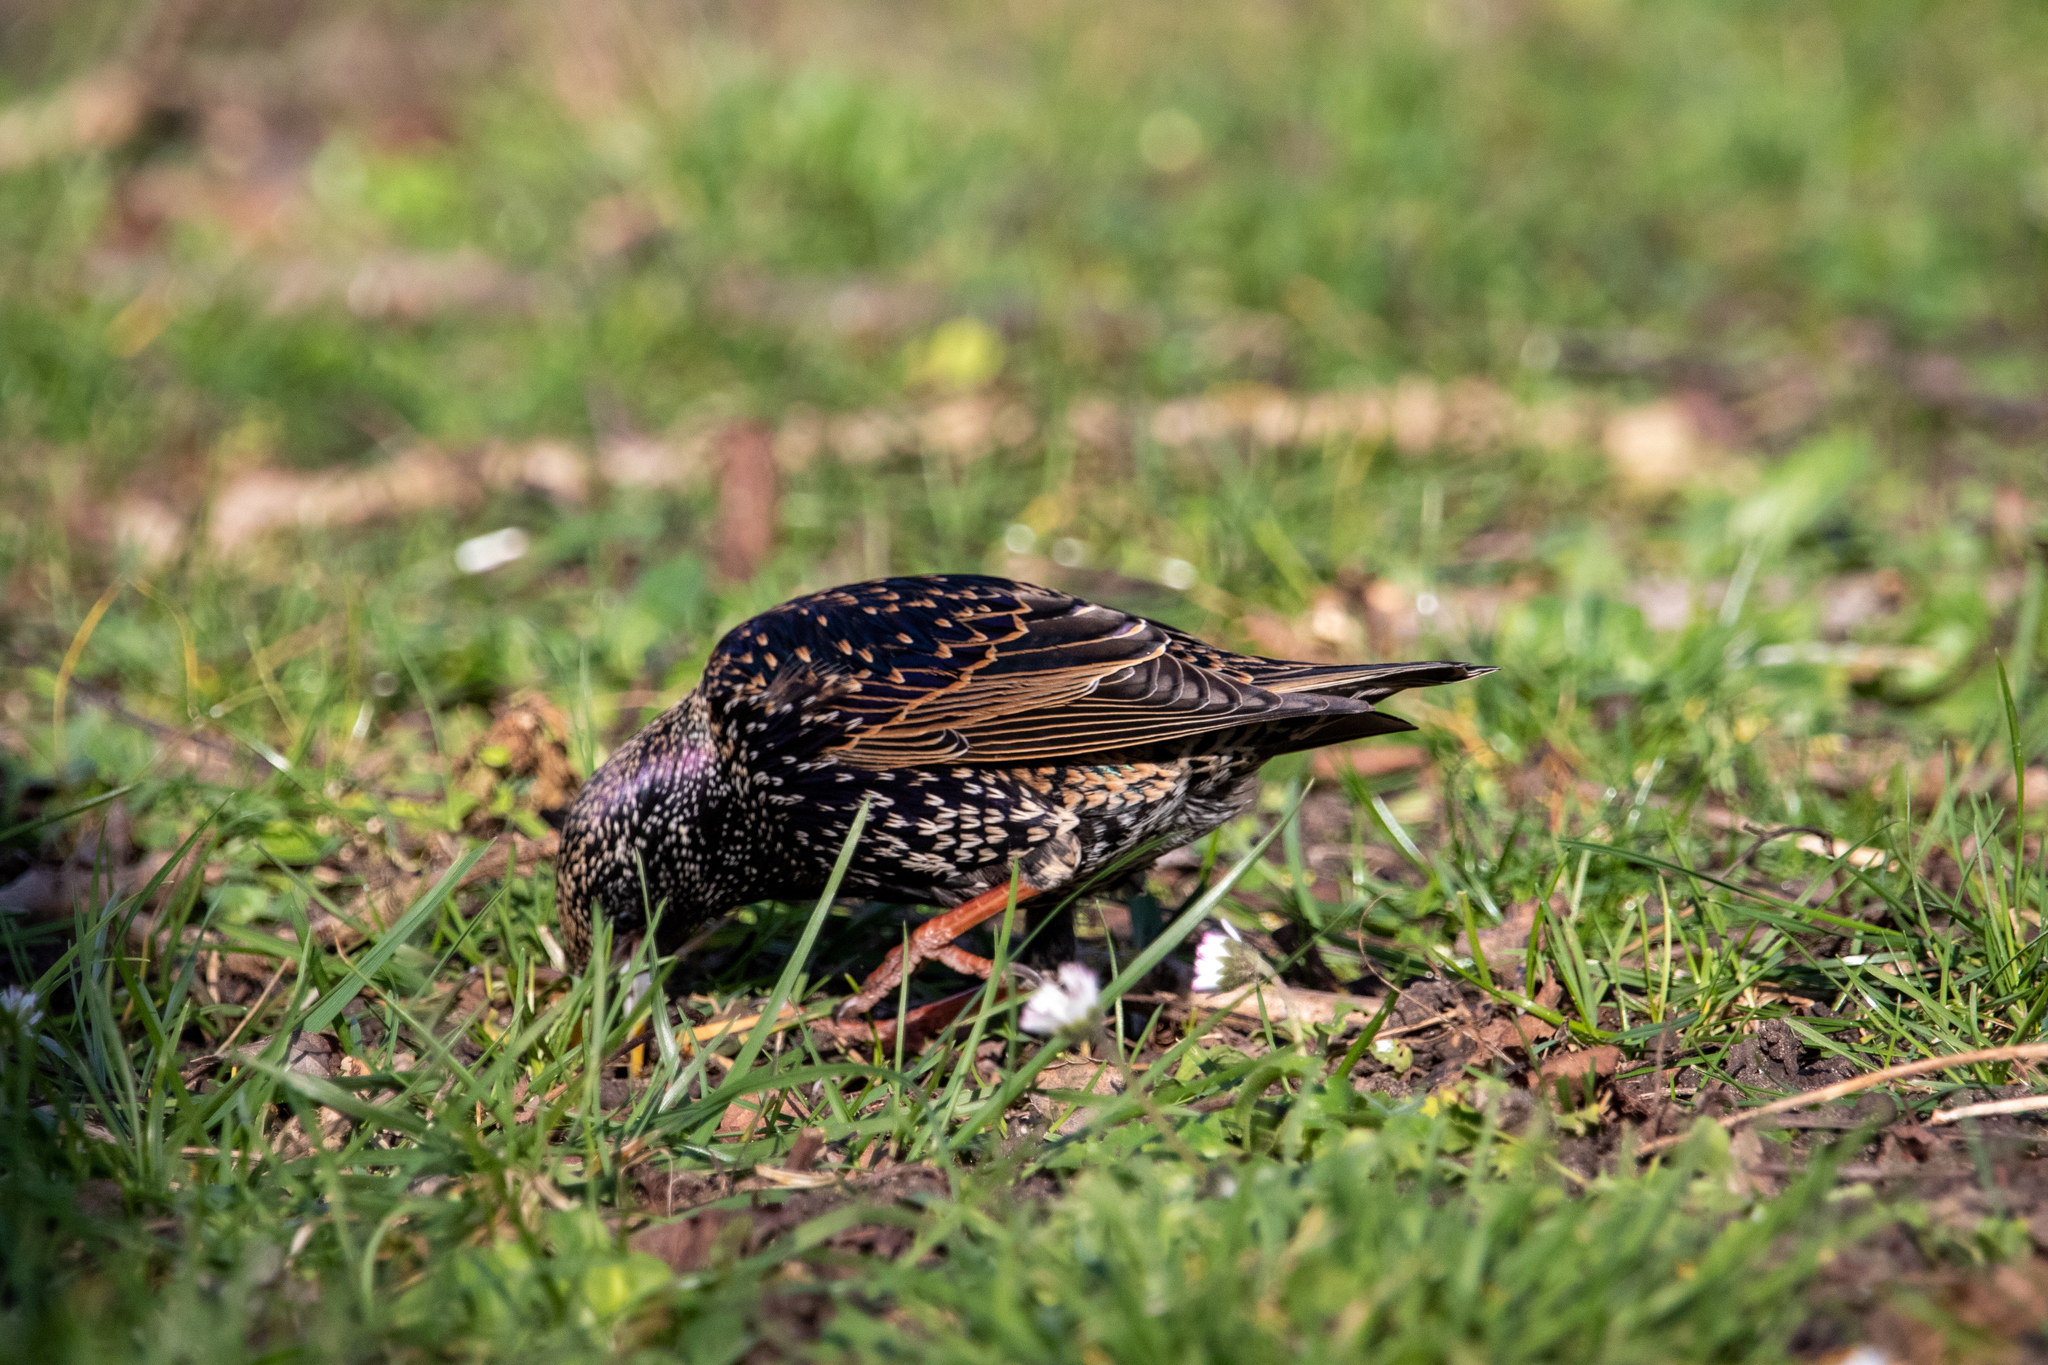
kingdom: Animalia
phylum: Chordata
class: Aves
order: Passeriformes
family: Sturnidae
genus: Sturnus
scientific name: Sturnus vulgaris
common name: Common starling
